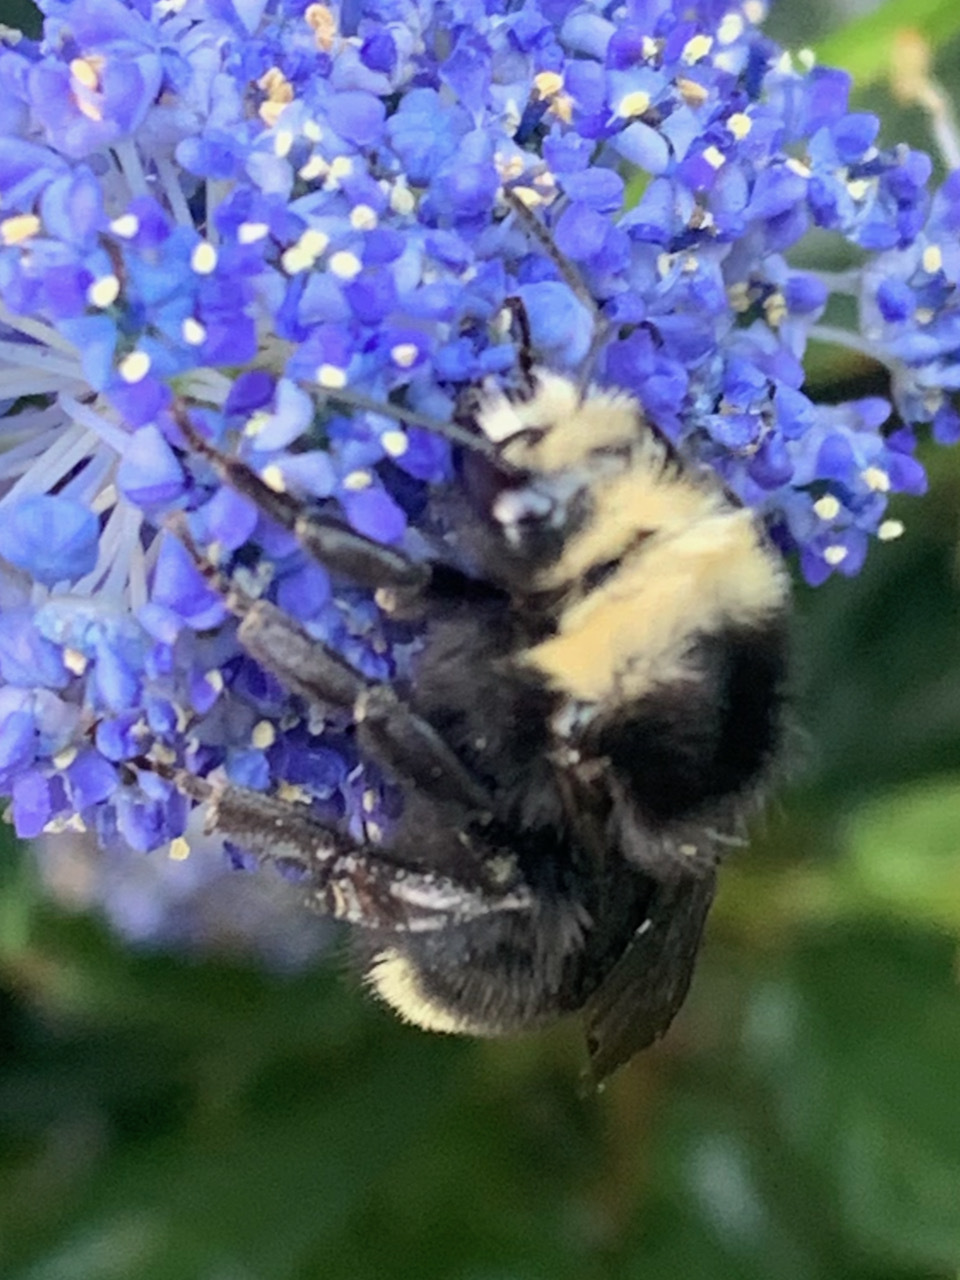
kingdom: Animalia
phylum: Arthropoda
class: Insecta
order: Hymenoptera
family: Apidae
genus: Bombus
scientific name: Bombus vosnesenskii
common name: Vosnesensky bumble bee
